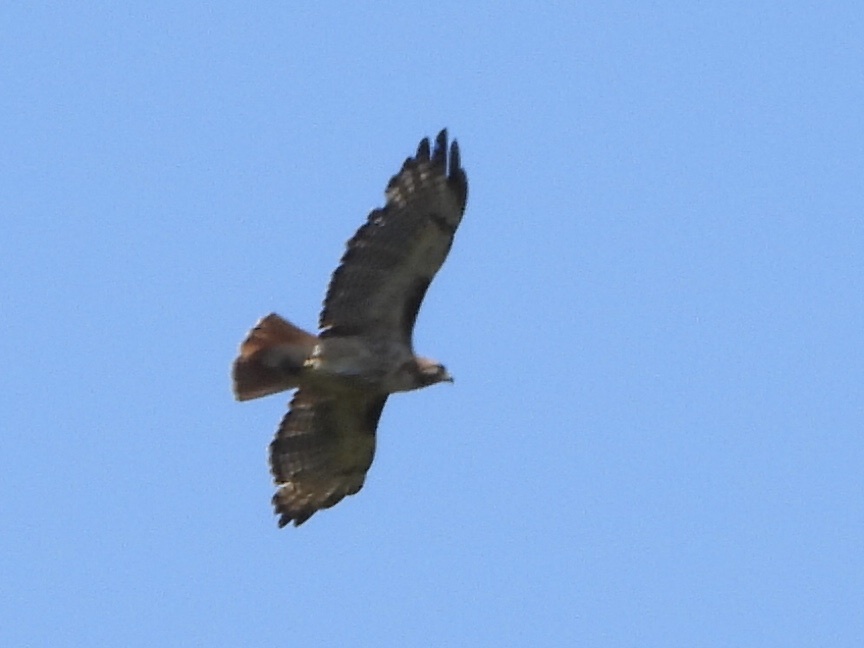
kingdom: Animalia
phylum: Chordata
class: Aves
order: Accipitriformes
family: Accipitridae
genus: Buteo
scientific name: Buteo jamaicensis
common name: Red-tailed hawk
